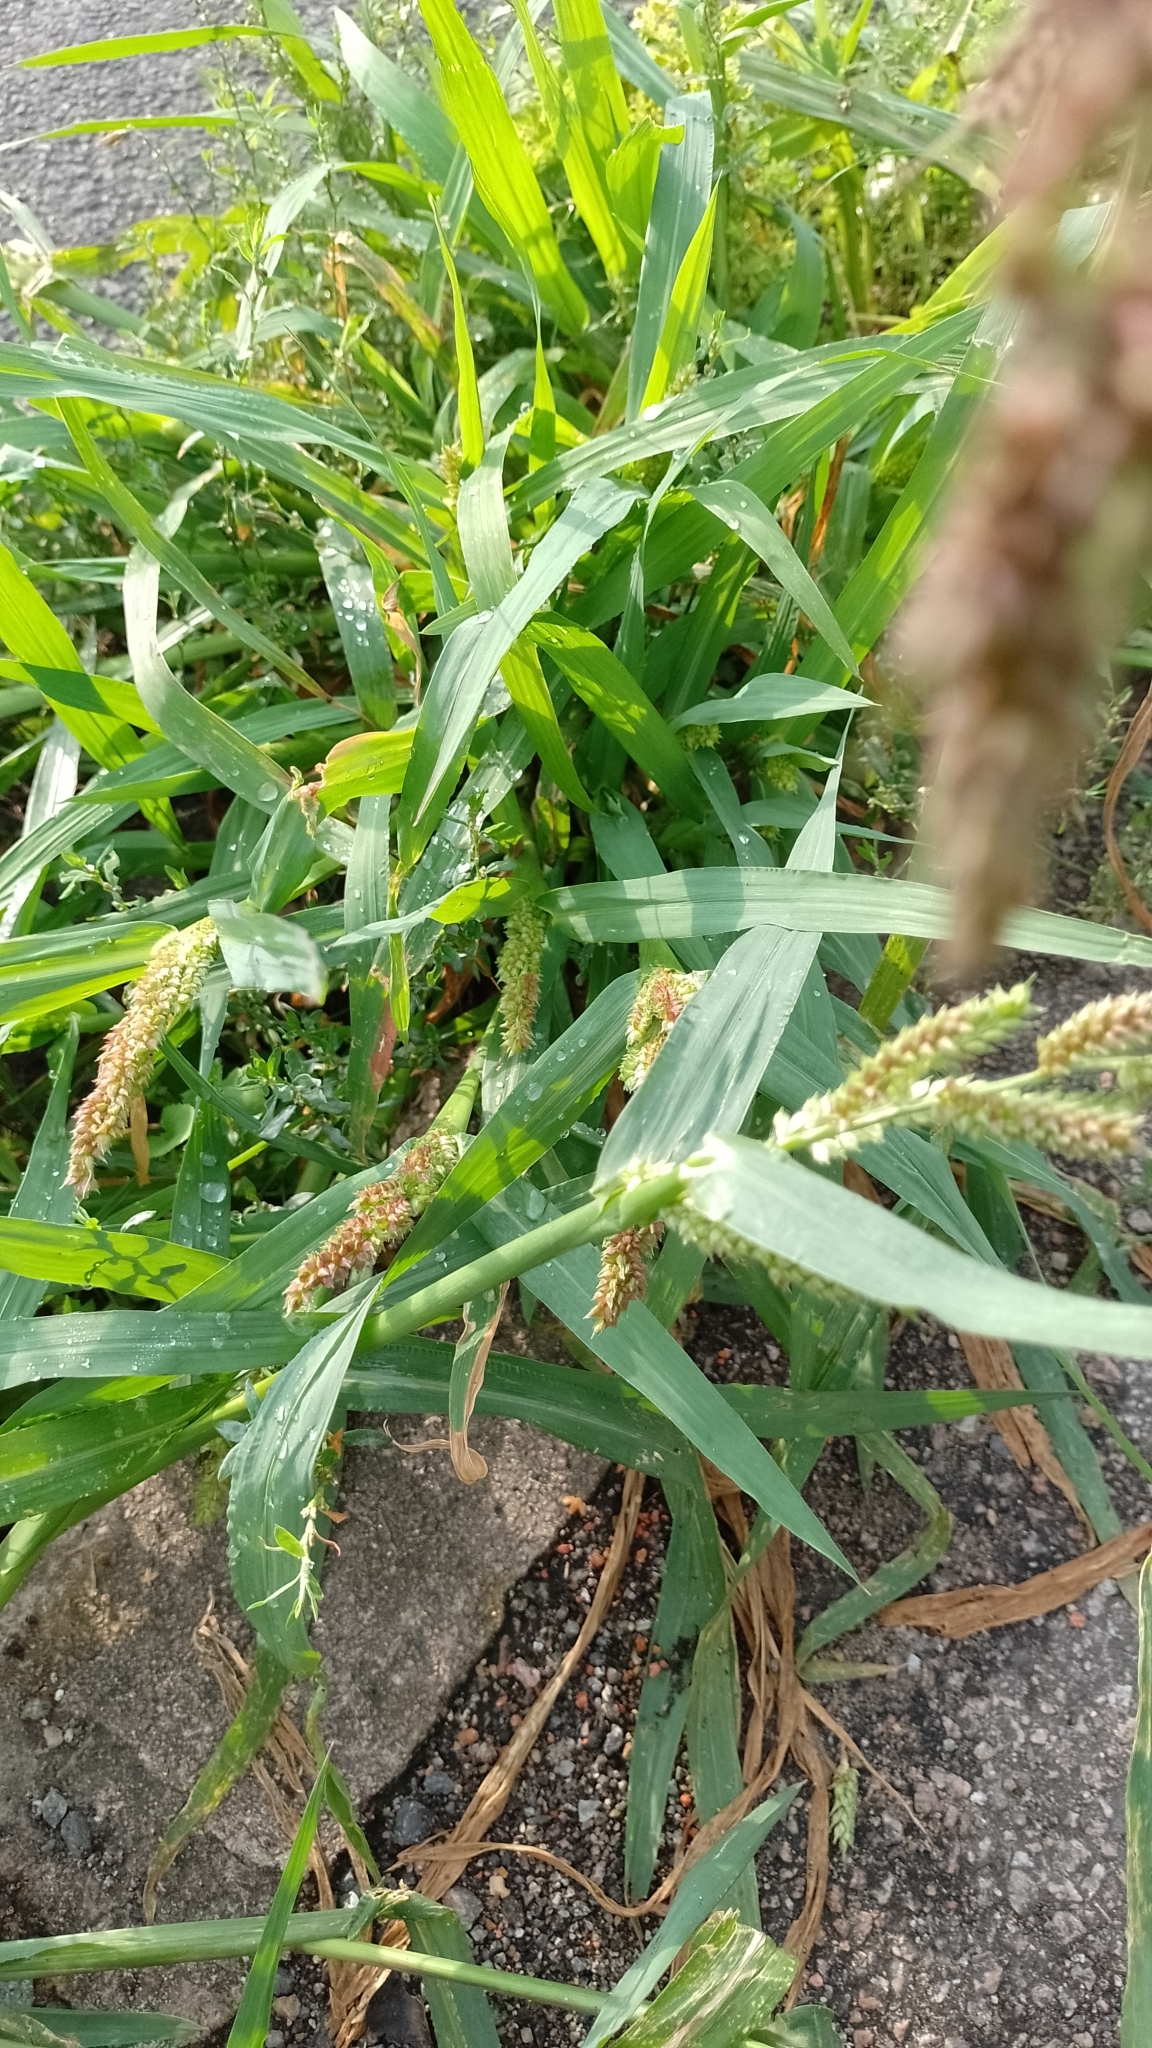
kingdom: Plantae
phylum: Tracheophyta
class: Liliopsida
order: Poales
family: Poaceae
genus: Echinochloa
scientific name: Echinochloa crus-galli
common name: Cockspur
